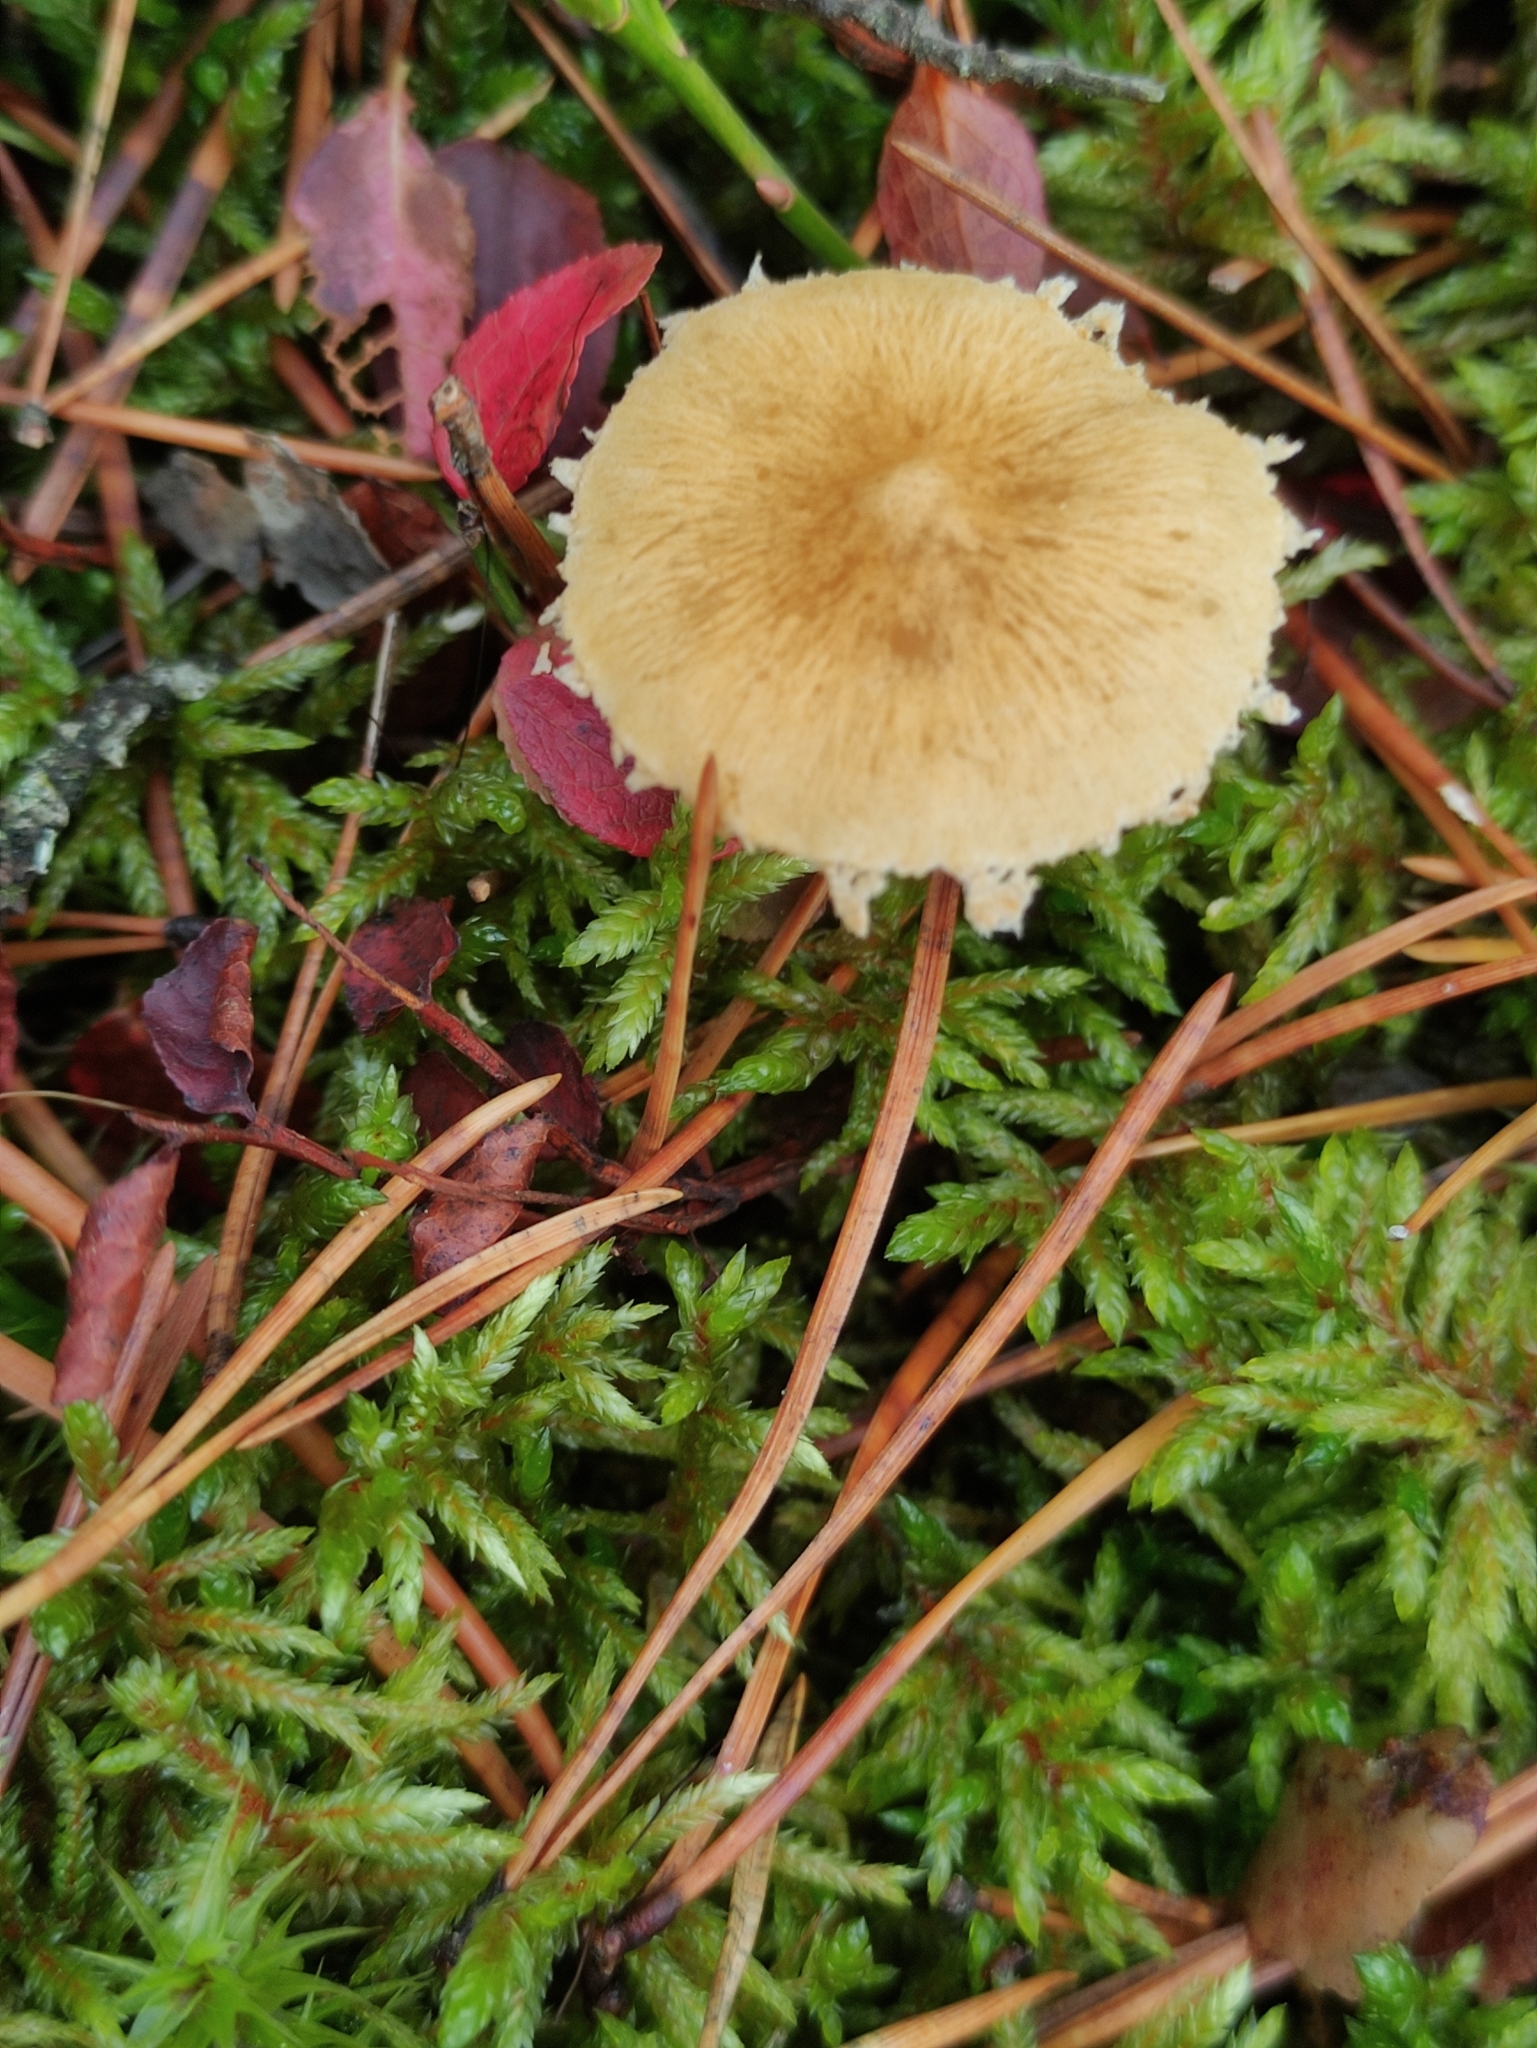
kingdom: Fungi
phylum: Basidiomycota
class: Agaricomycetes
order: Agaricales
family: Tricholomataceae
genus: Cystoderma
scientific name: Cystoderma amianthinum
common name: Earthy powdercap
